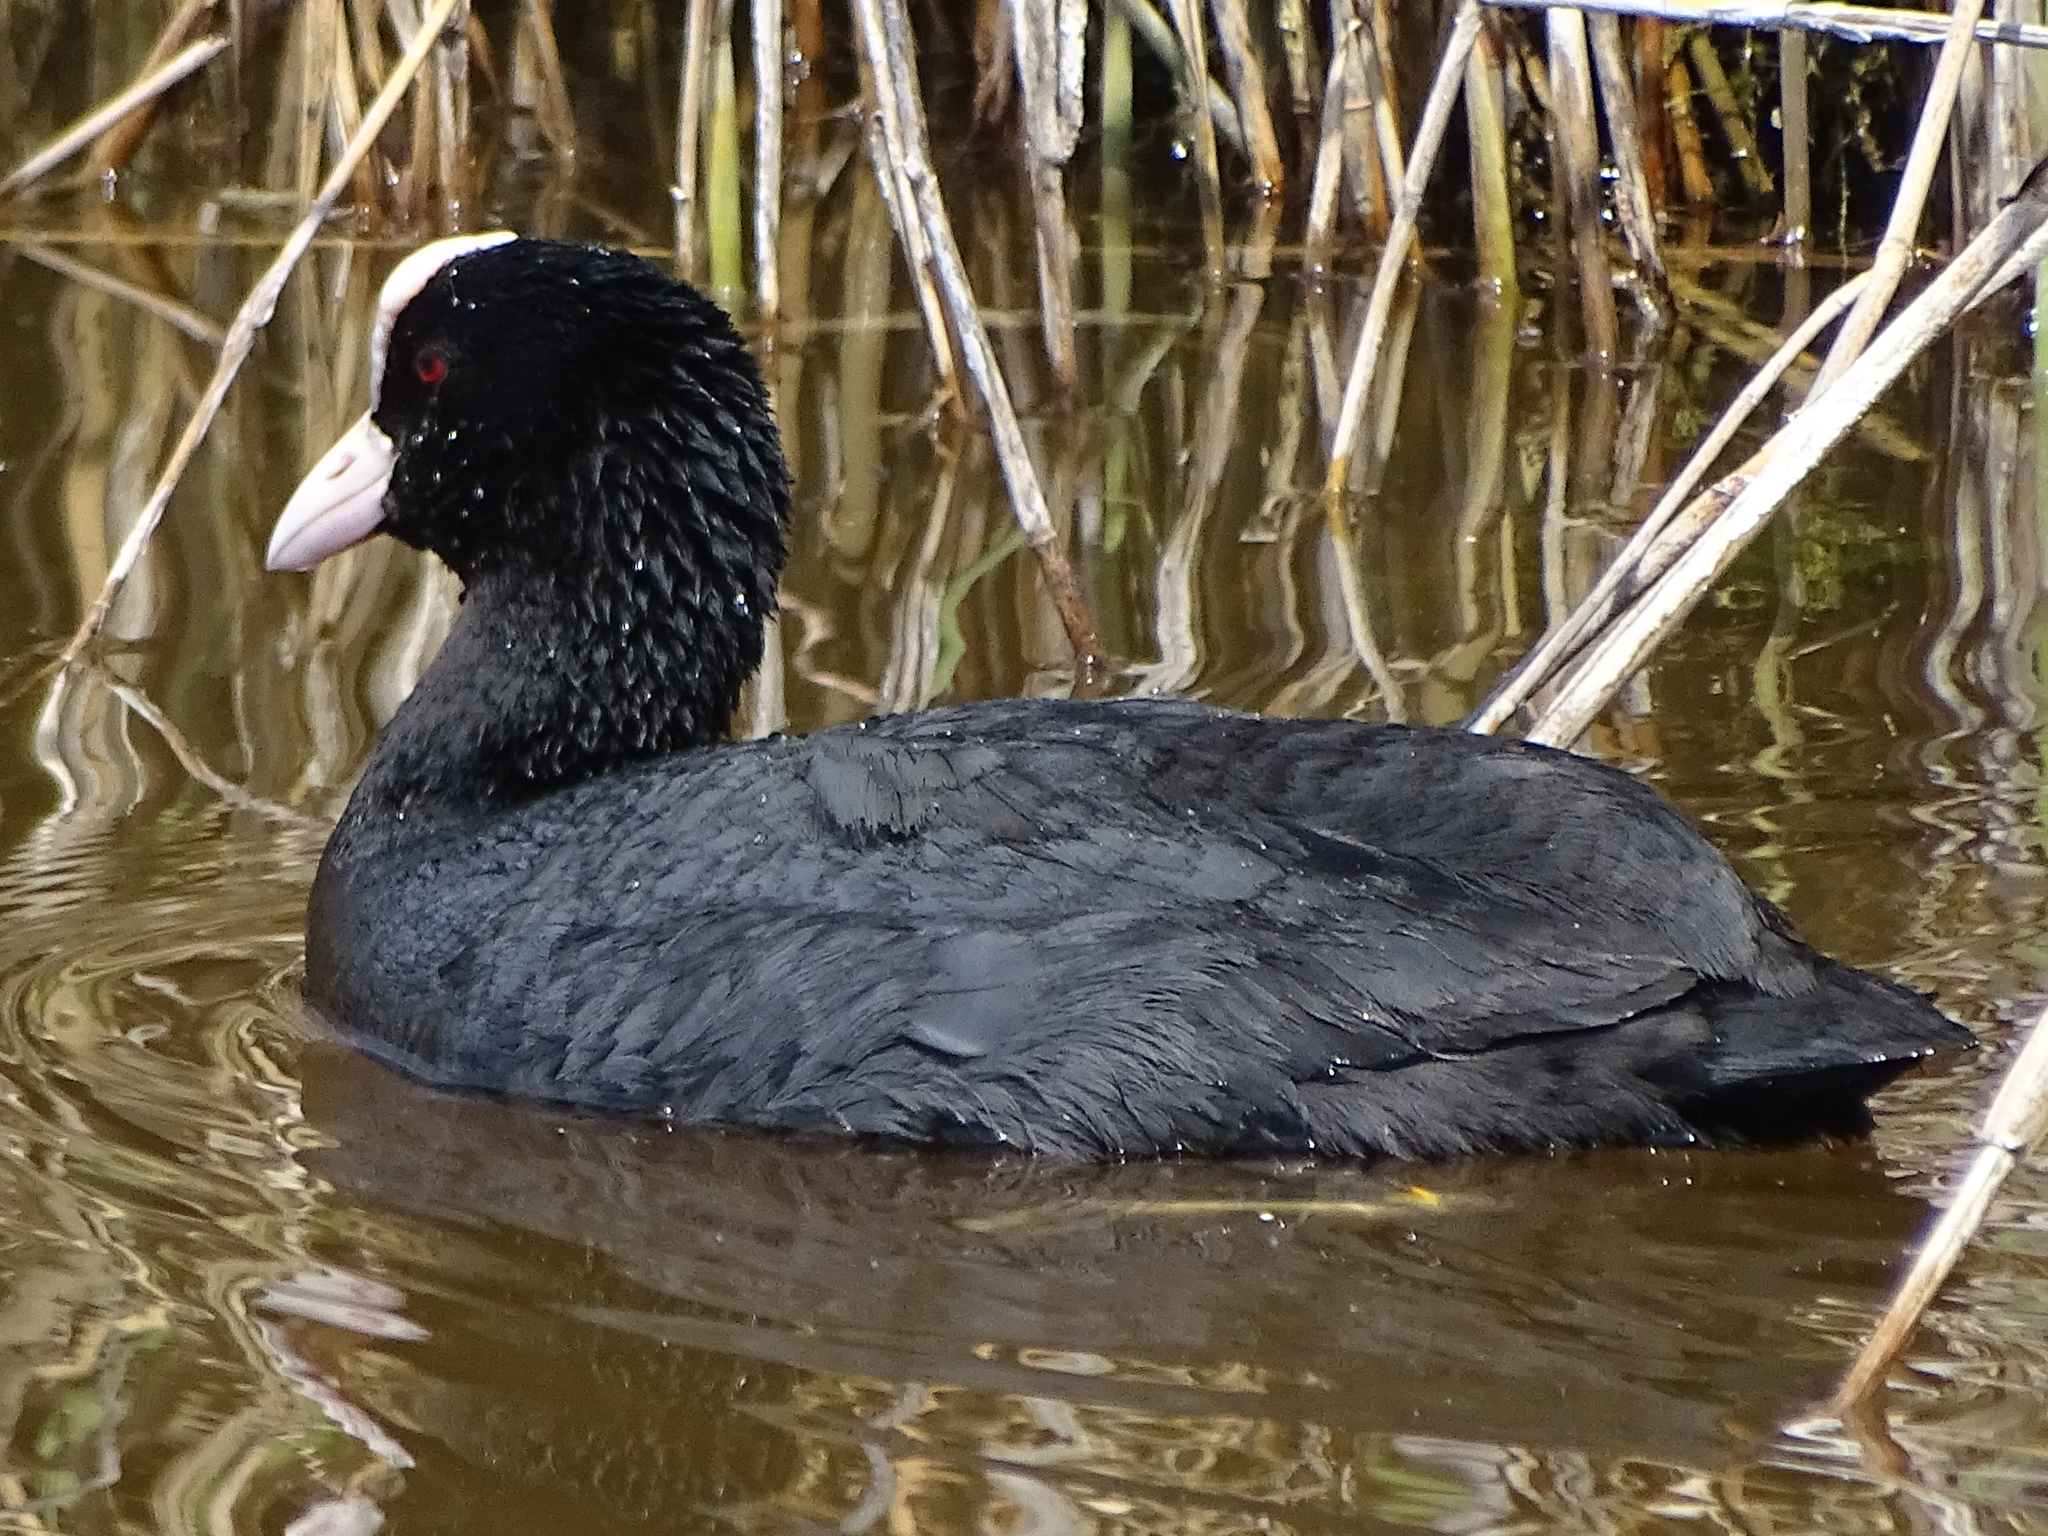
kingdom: Animalia
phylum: Chordata
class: Aves
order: Gruiformes
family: Rallidae
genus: Fulica
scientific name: Fulica atra
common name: Eurasian coot
